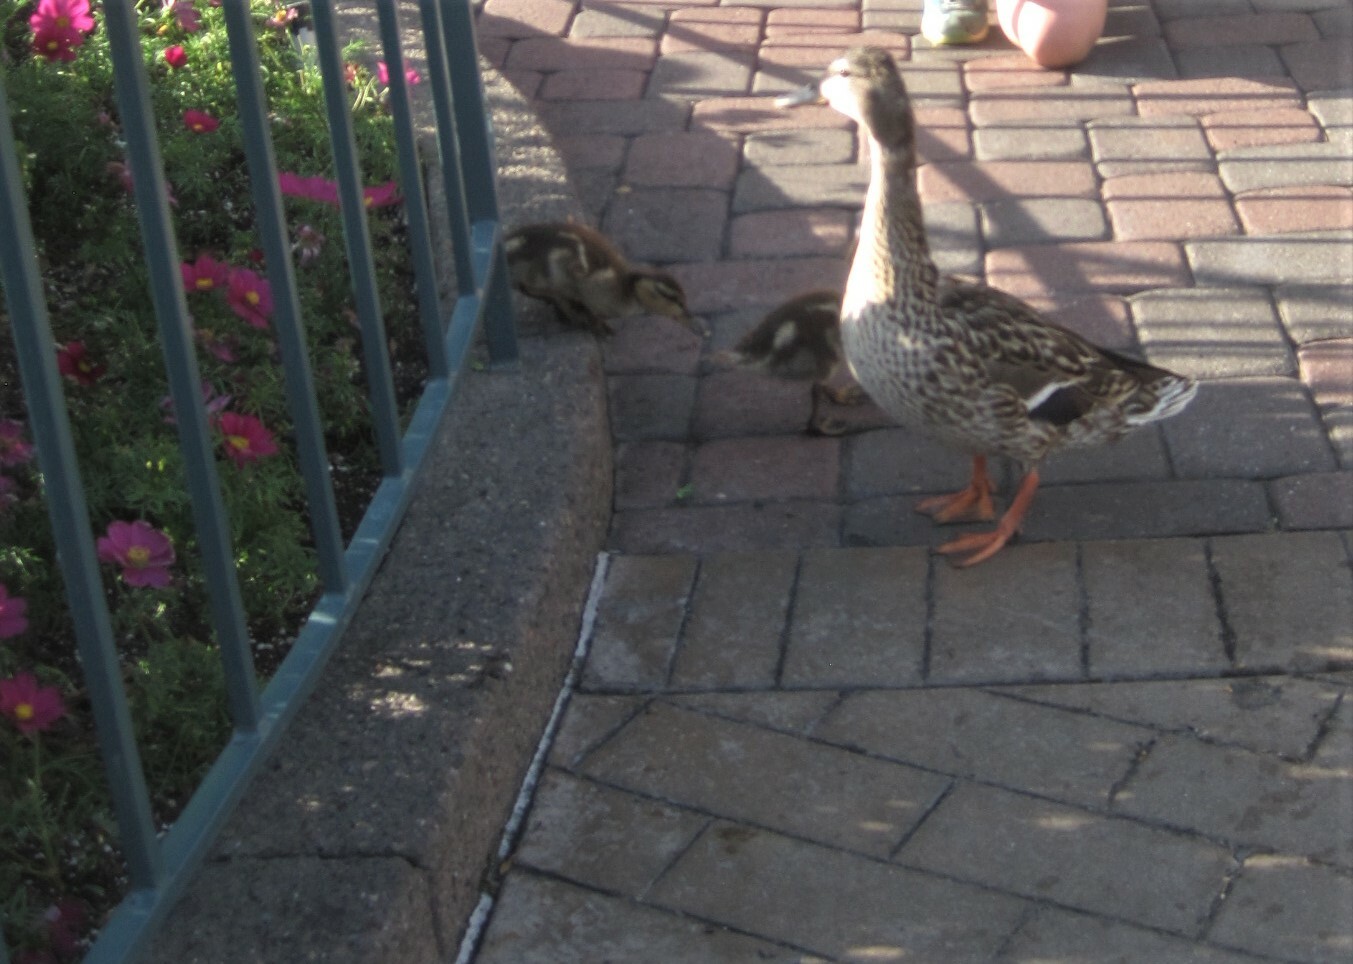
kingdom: Animalia
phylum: Chordata
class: Aves
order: Anseriformes
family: Anatidae
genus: Anas
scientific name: Anas platyrhynchos
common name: Mallard
